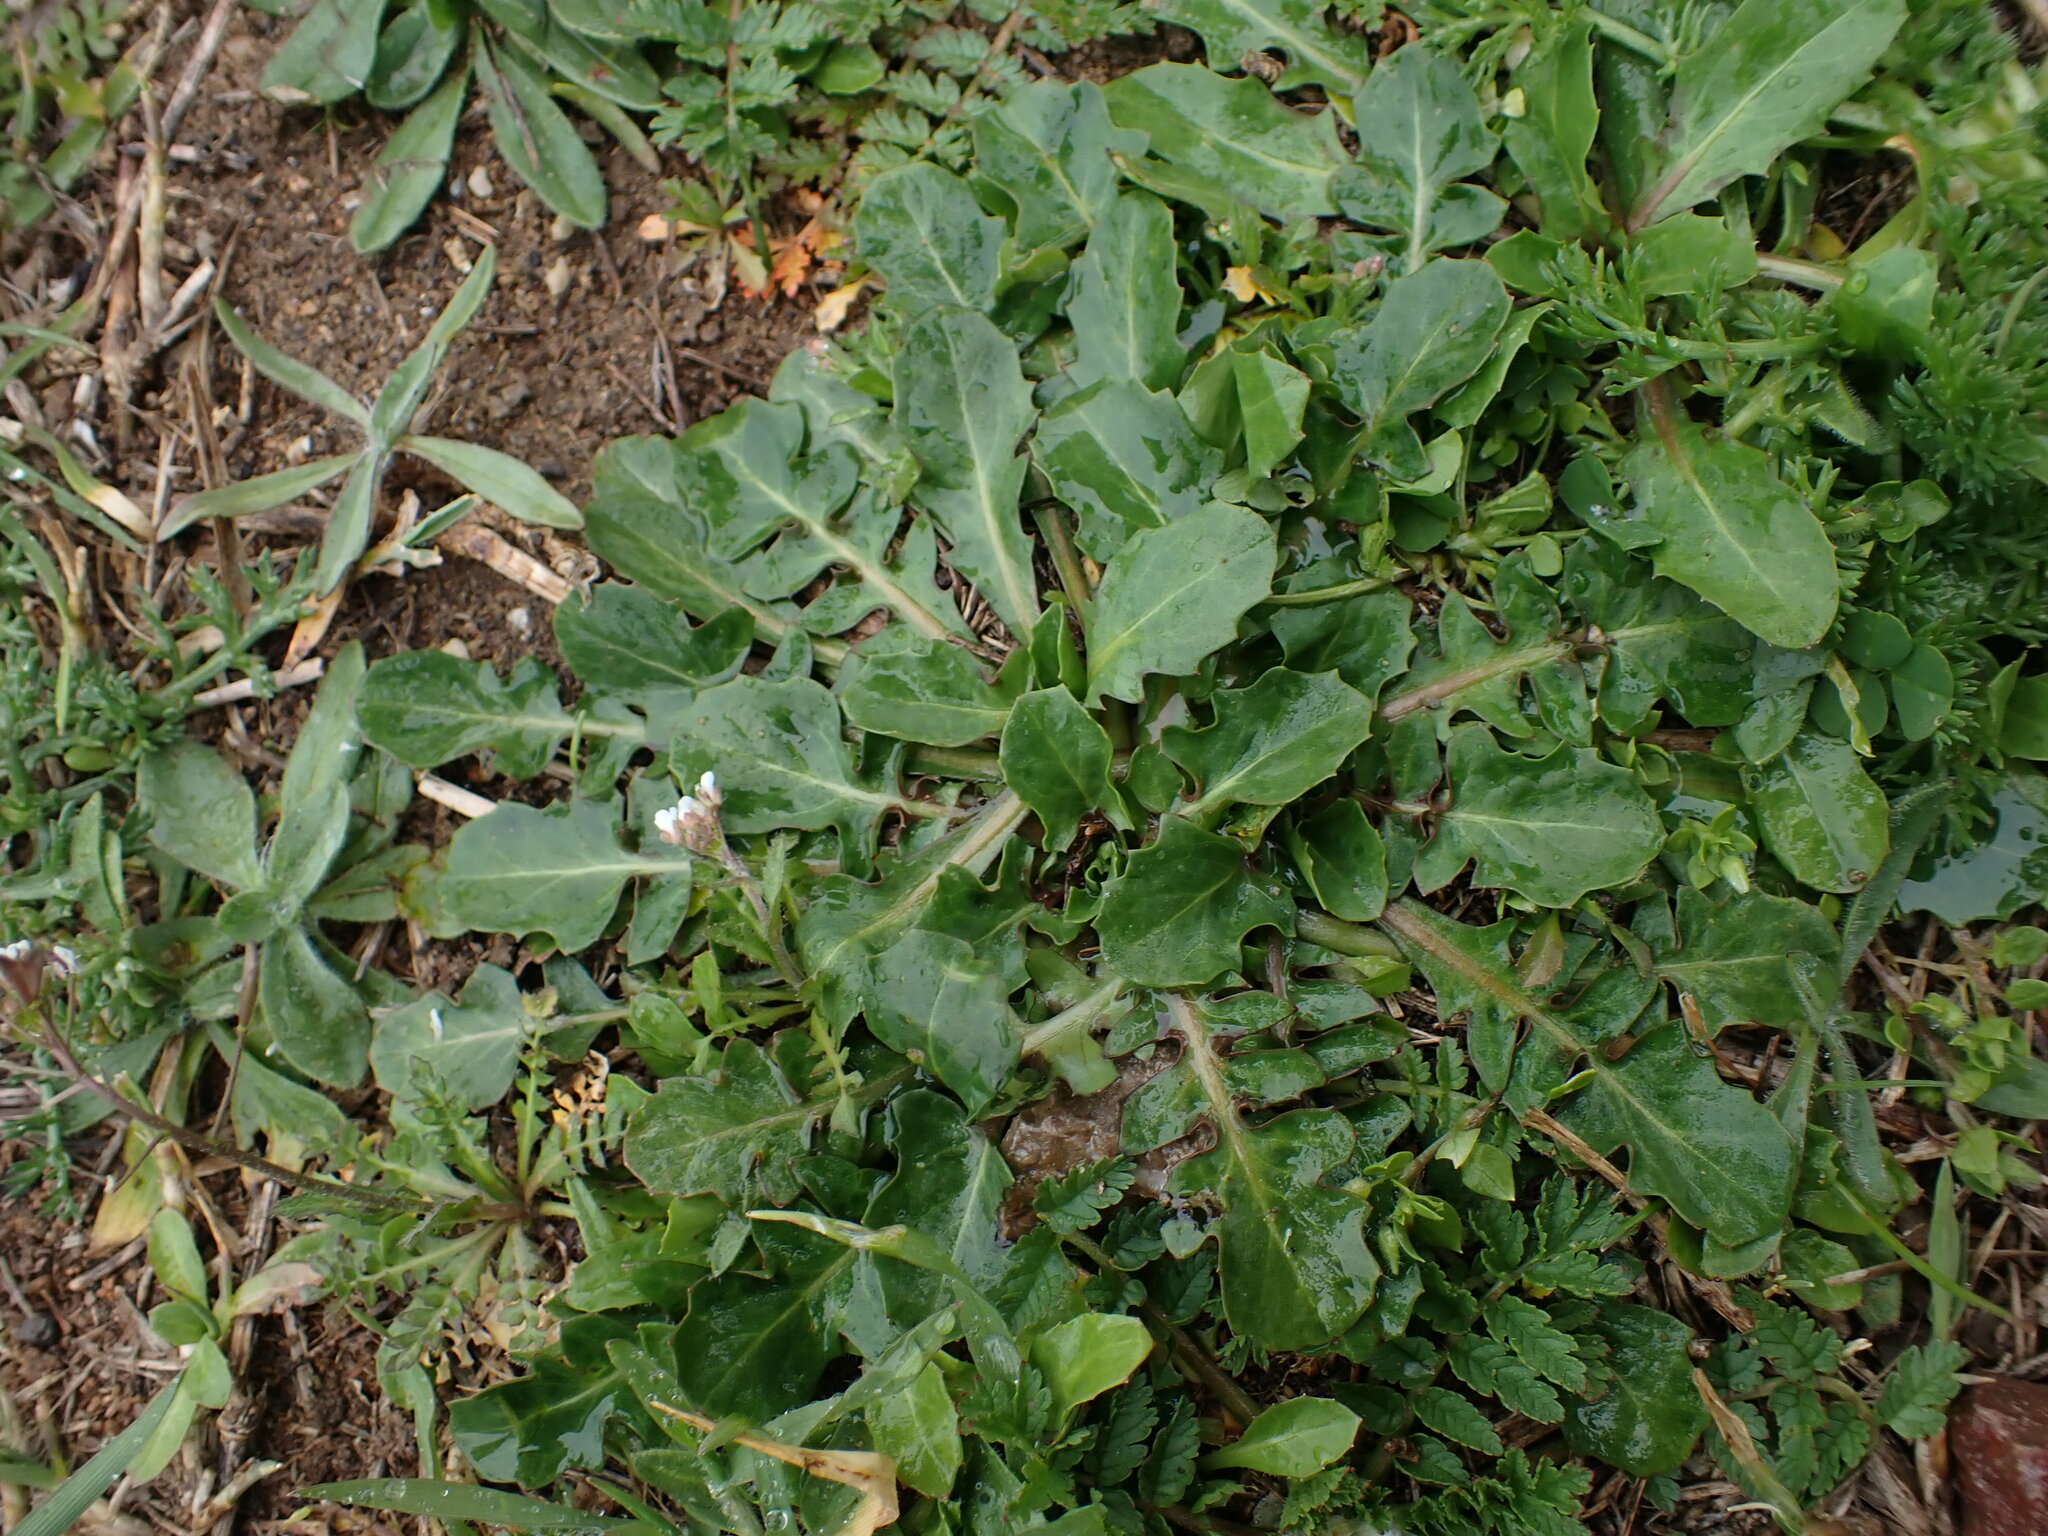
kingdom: Plantae
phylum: Tracheophyta
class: Magnoliopsida
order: Asterales
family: Asteraceae
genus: Crepis
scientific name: Crepis bursifolia
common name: Italian hawksbeard
